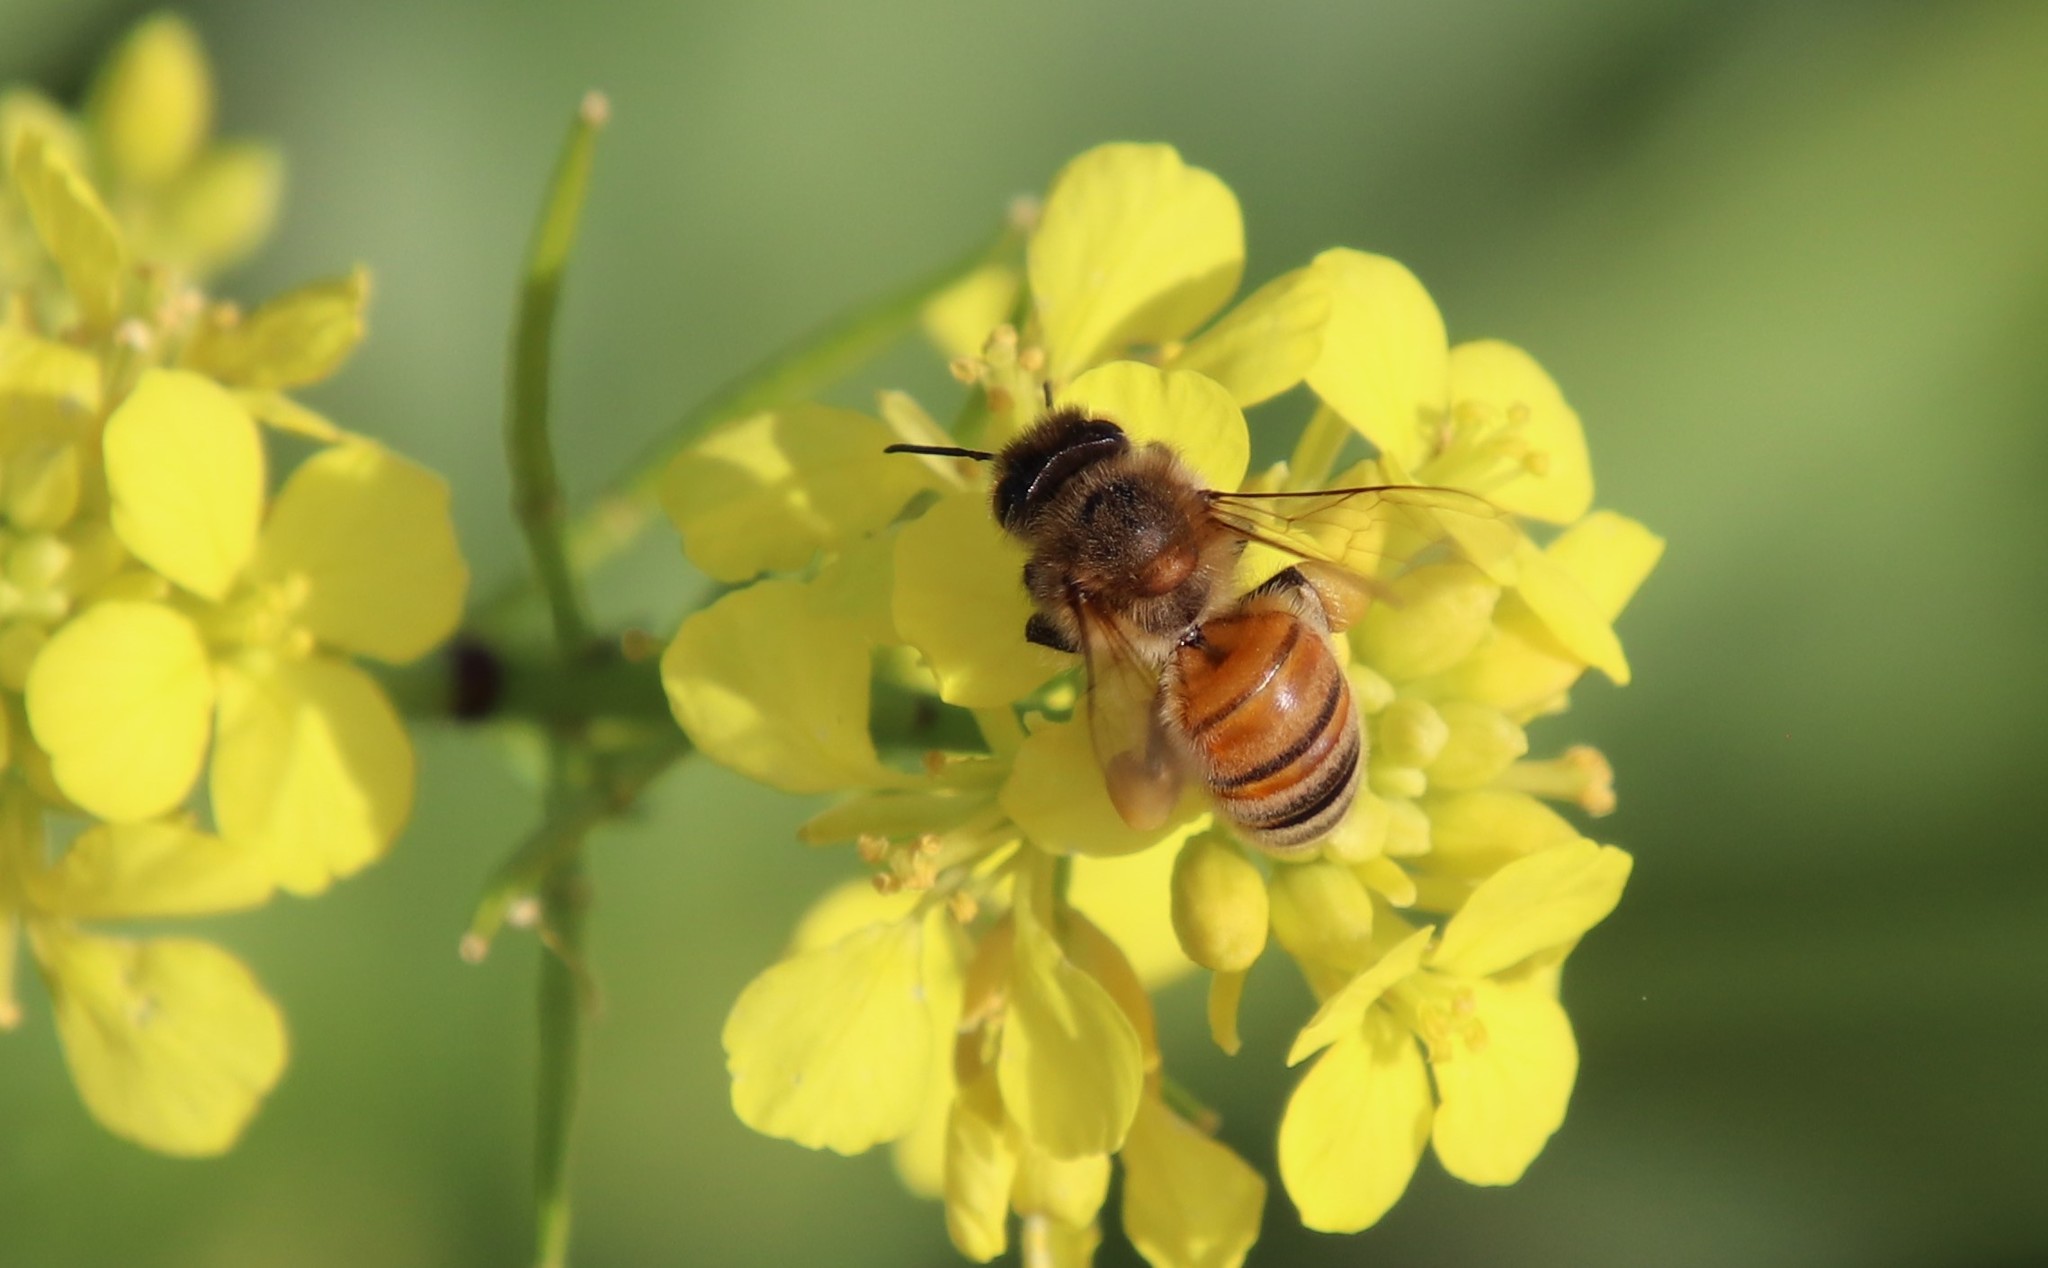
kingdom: Animalia
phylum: Arthropoda
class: Insecta
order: Hymenoptera
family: Apidae
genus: Apis
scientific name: Apis mellifera
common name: Honey bee
